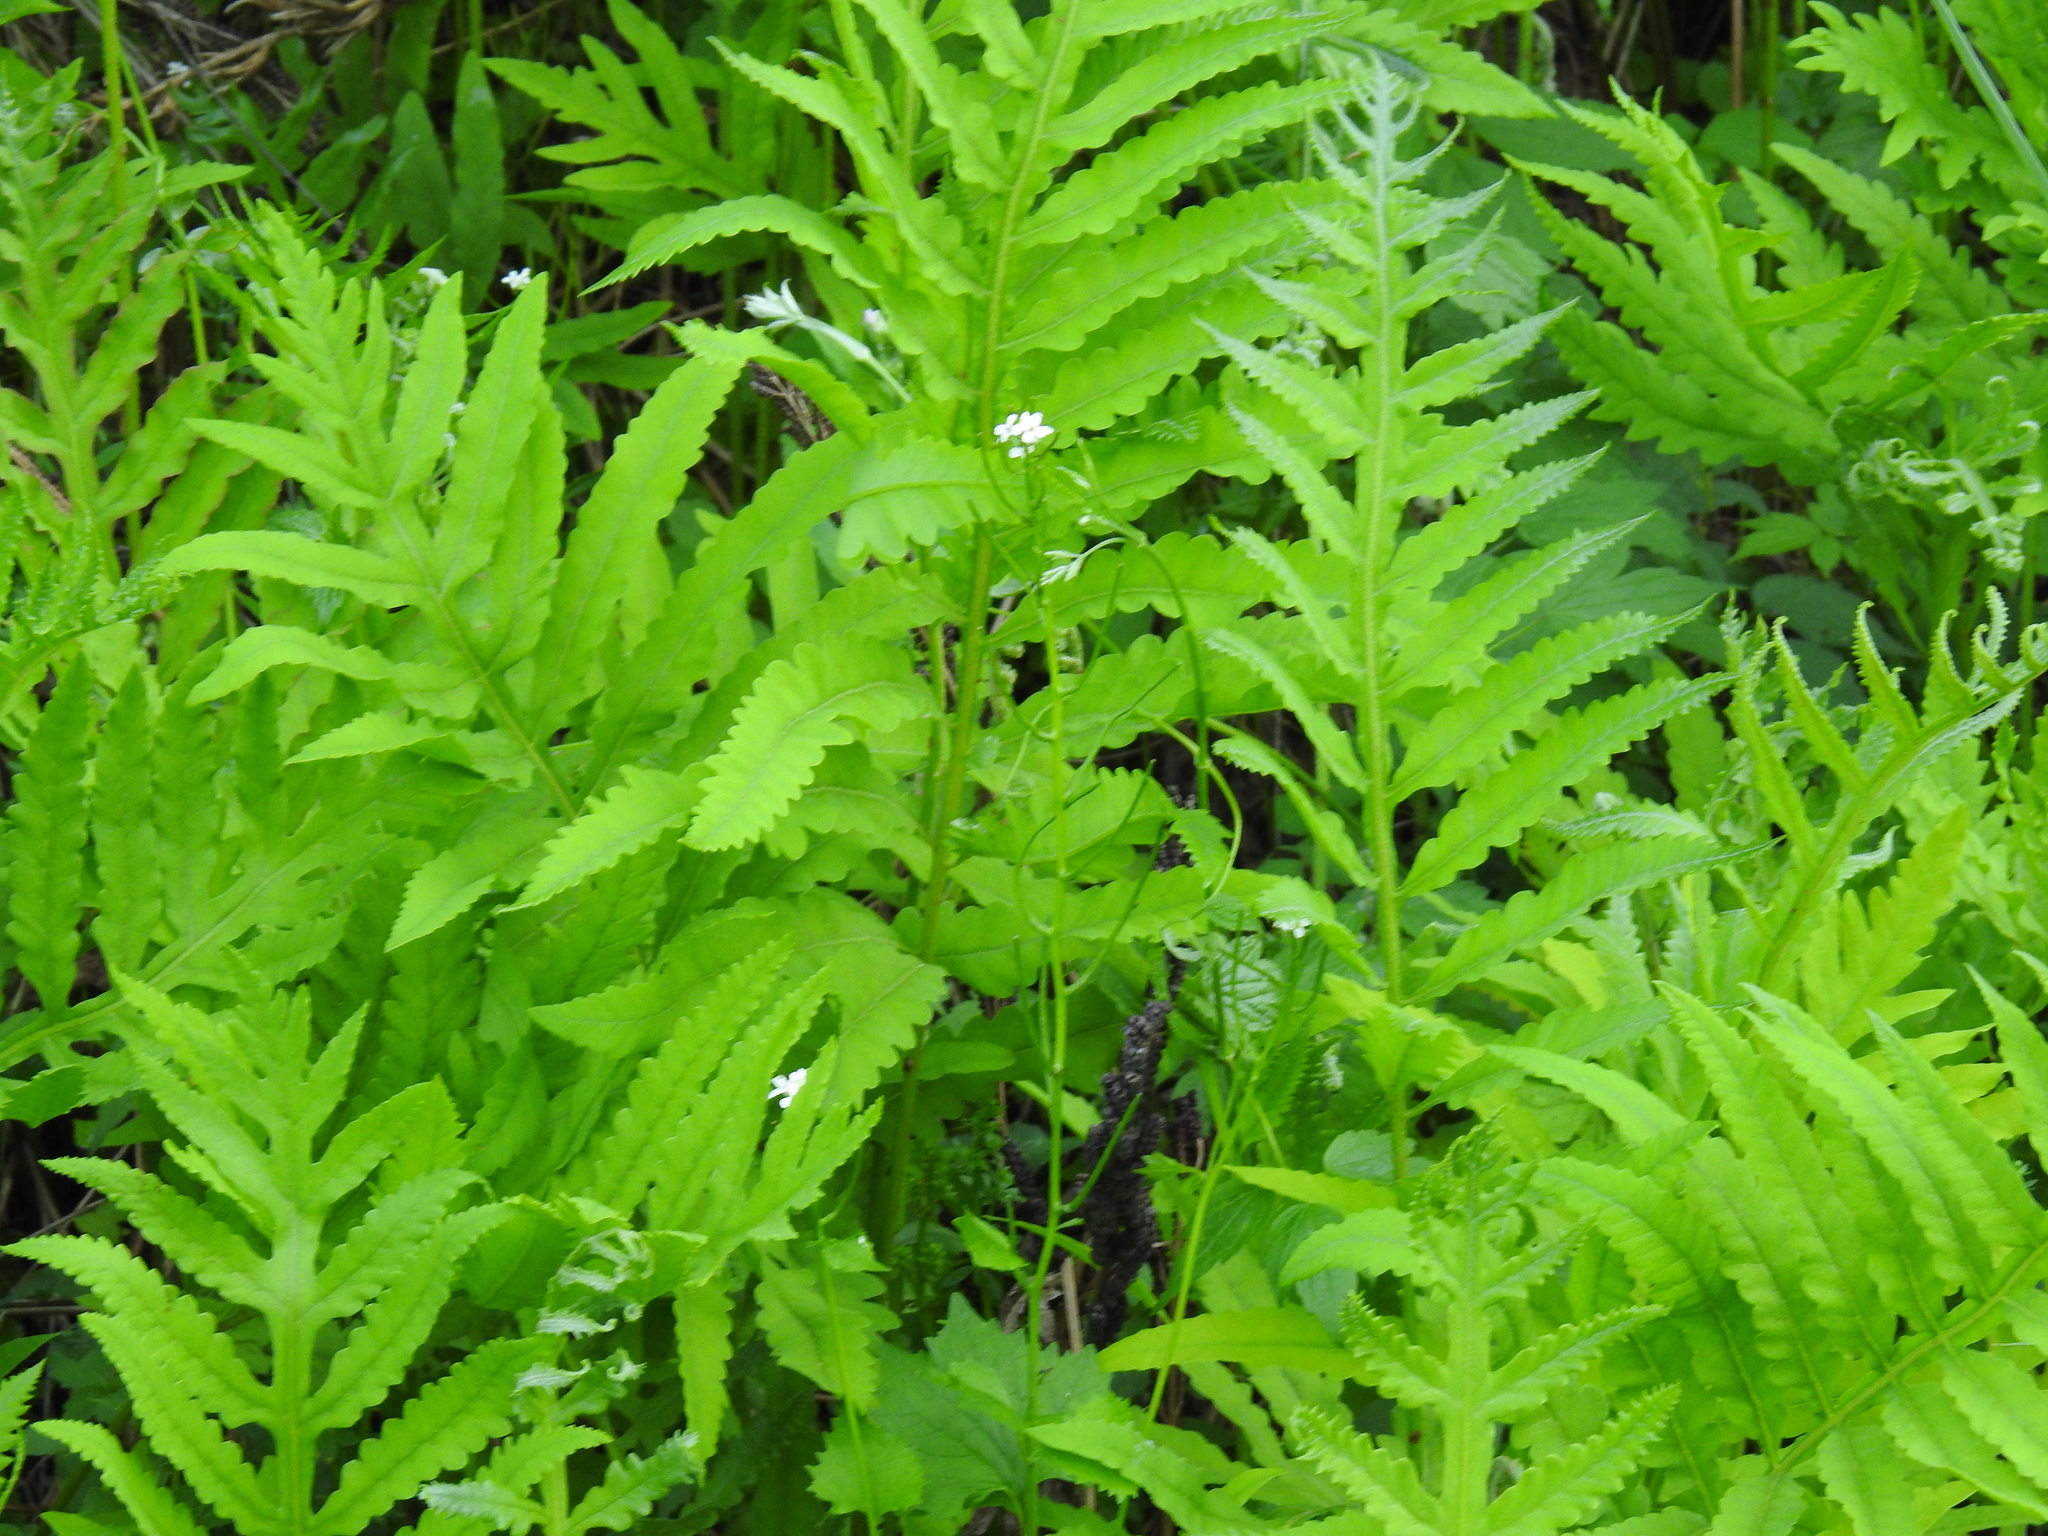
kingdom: Plantae
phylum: Tracheophyta
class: Polypodiopsida
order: Polypodiales
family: Onocleaceae
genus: Onoclea
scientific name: Onoclea sensibilis
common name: Sensitive fern
